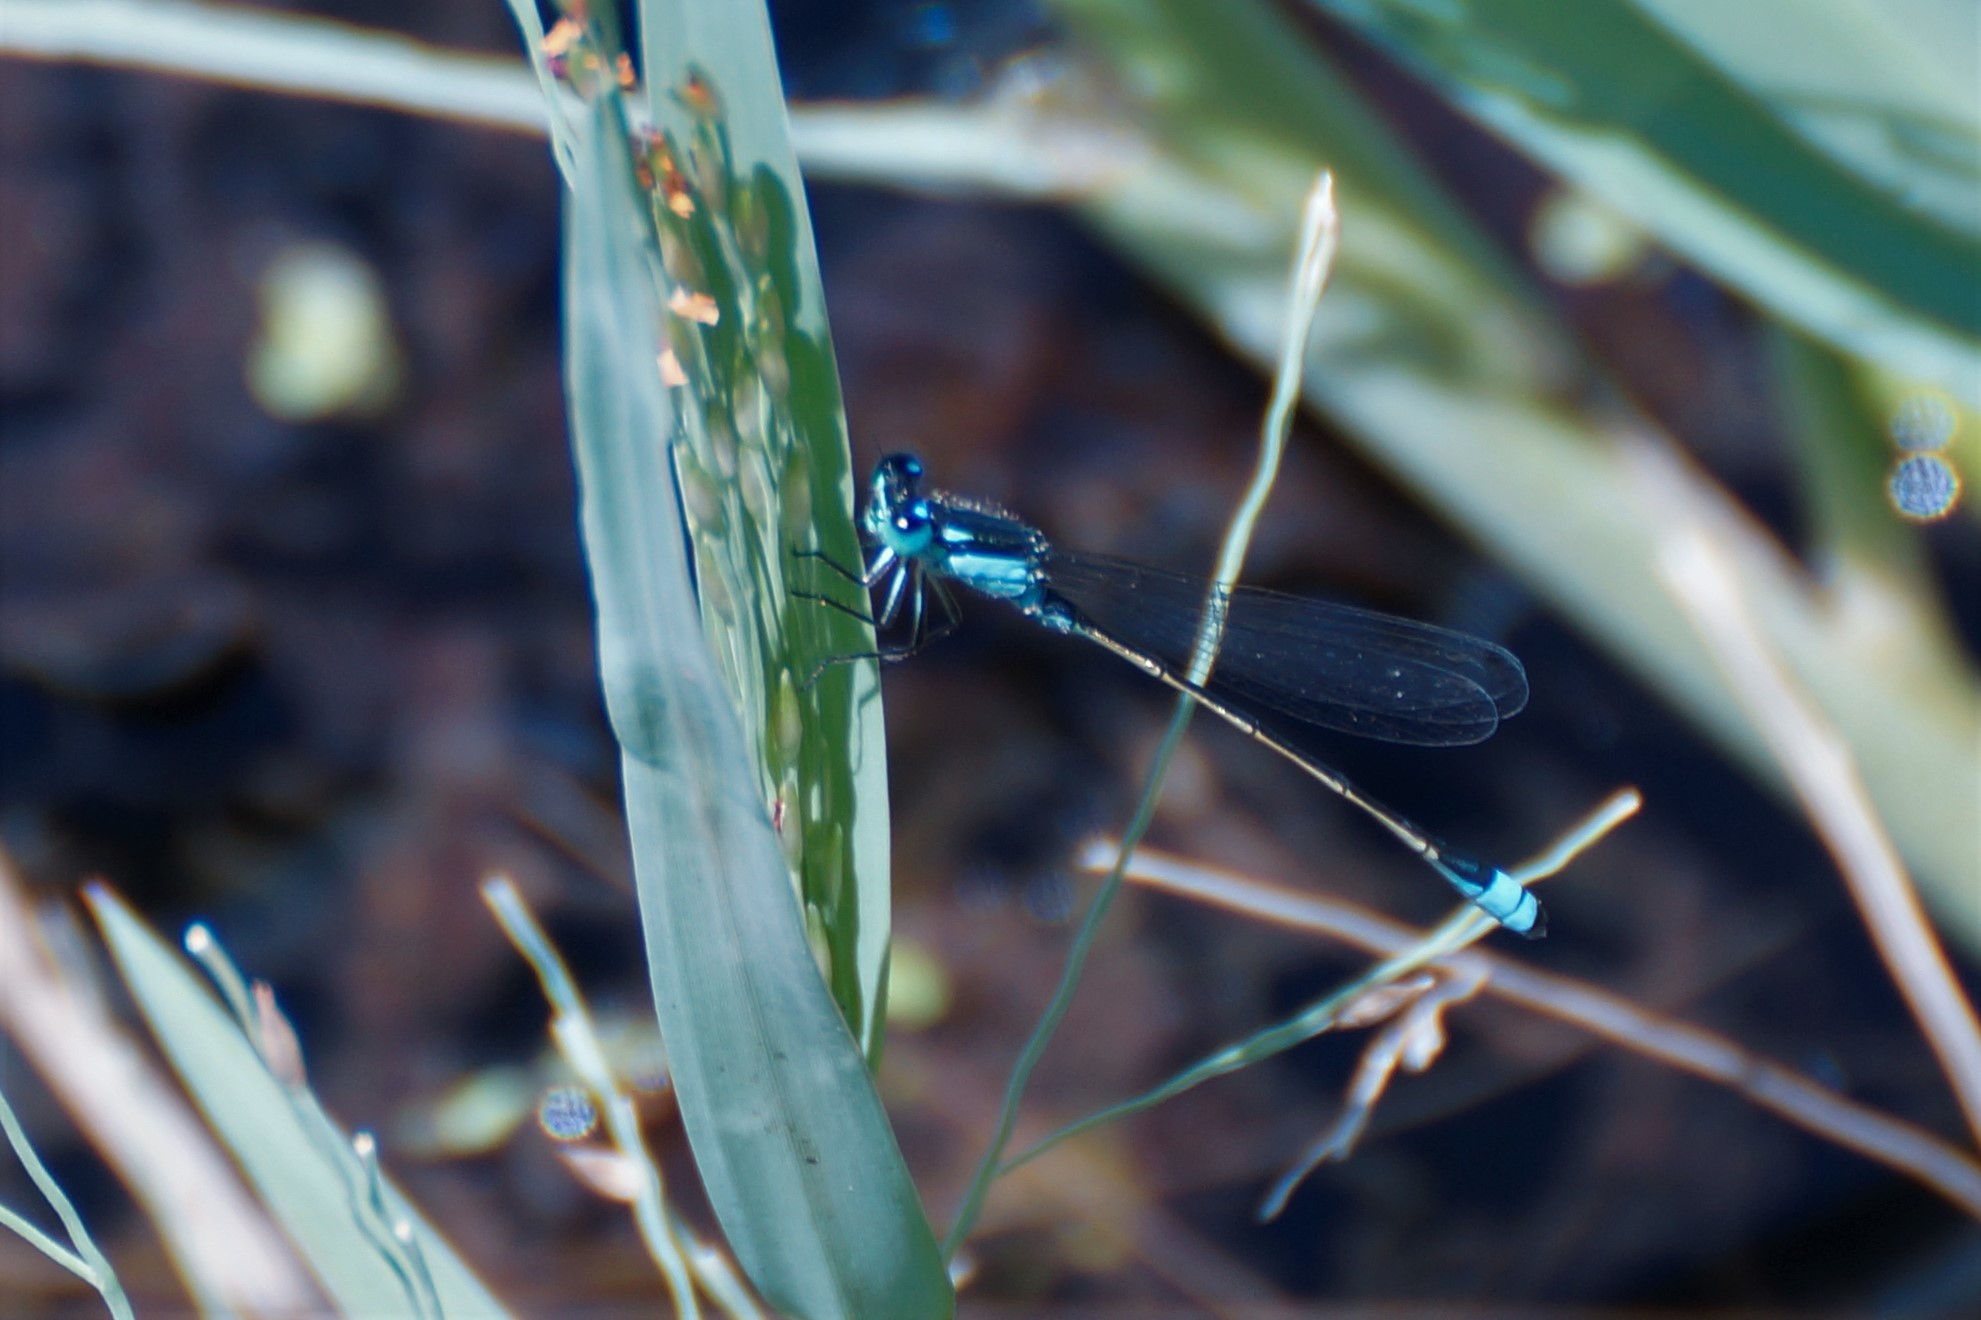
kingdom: Animalia
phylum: Arthropoda
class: Insecta
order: Odonata
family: Coenagrionidae
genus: Ischnura
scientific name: Ischnura heterosticta
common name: Common bluetail
